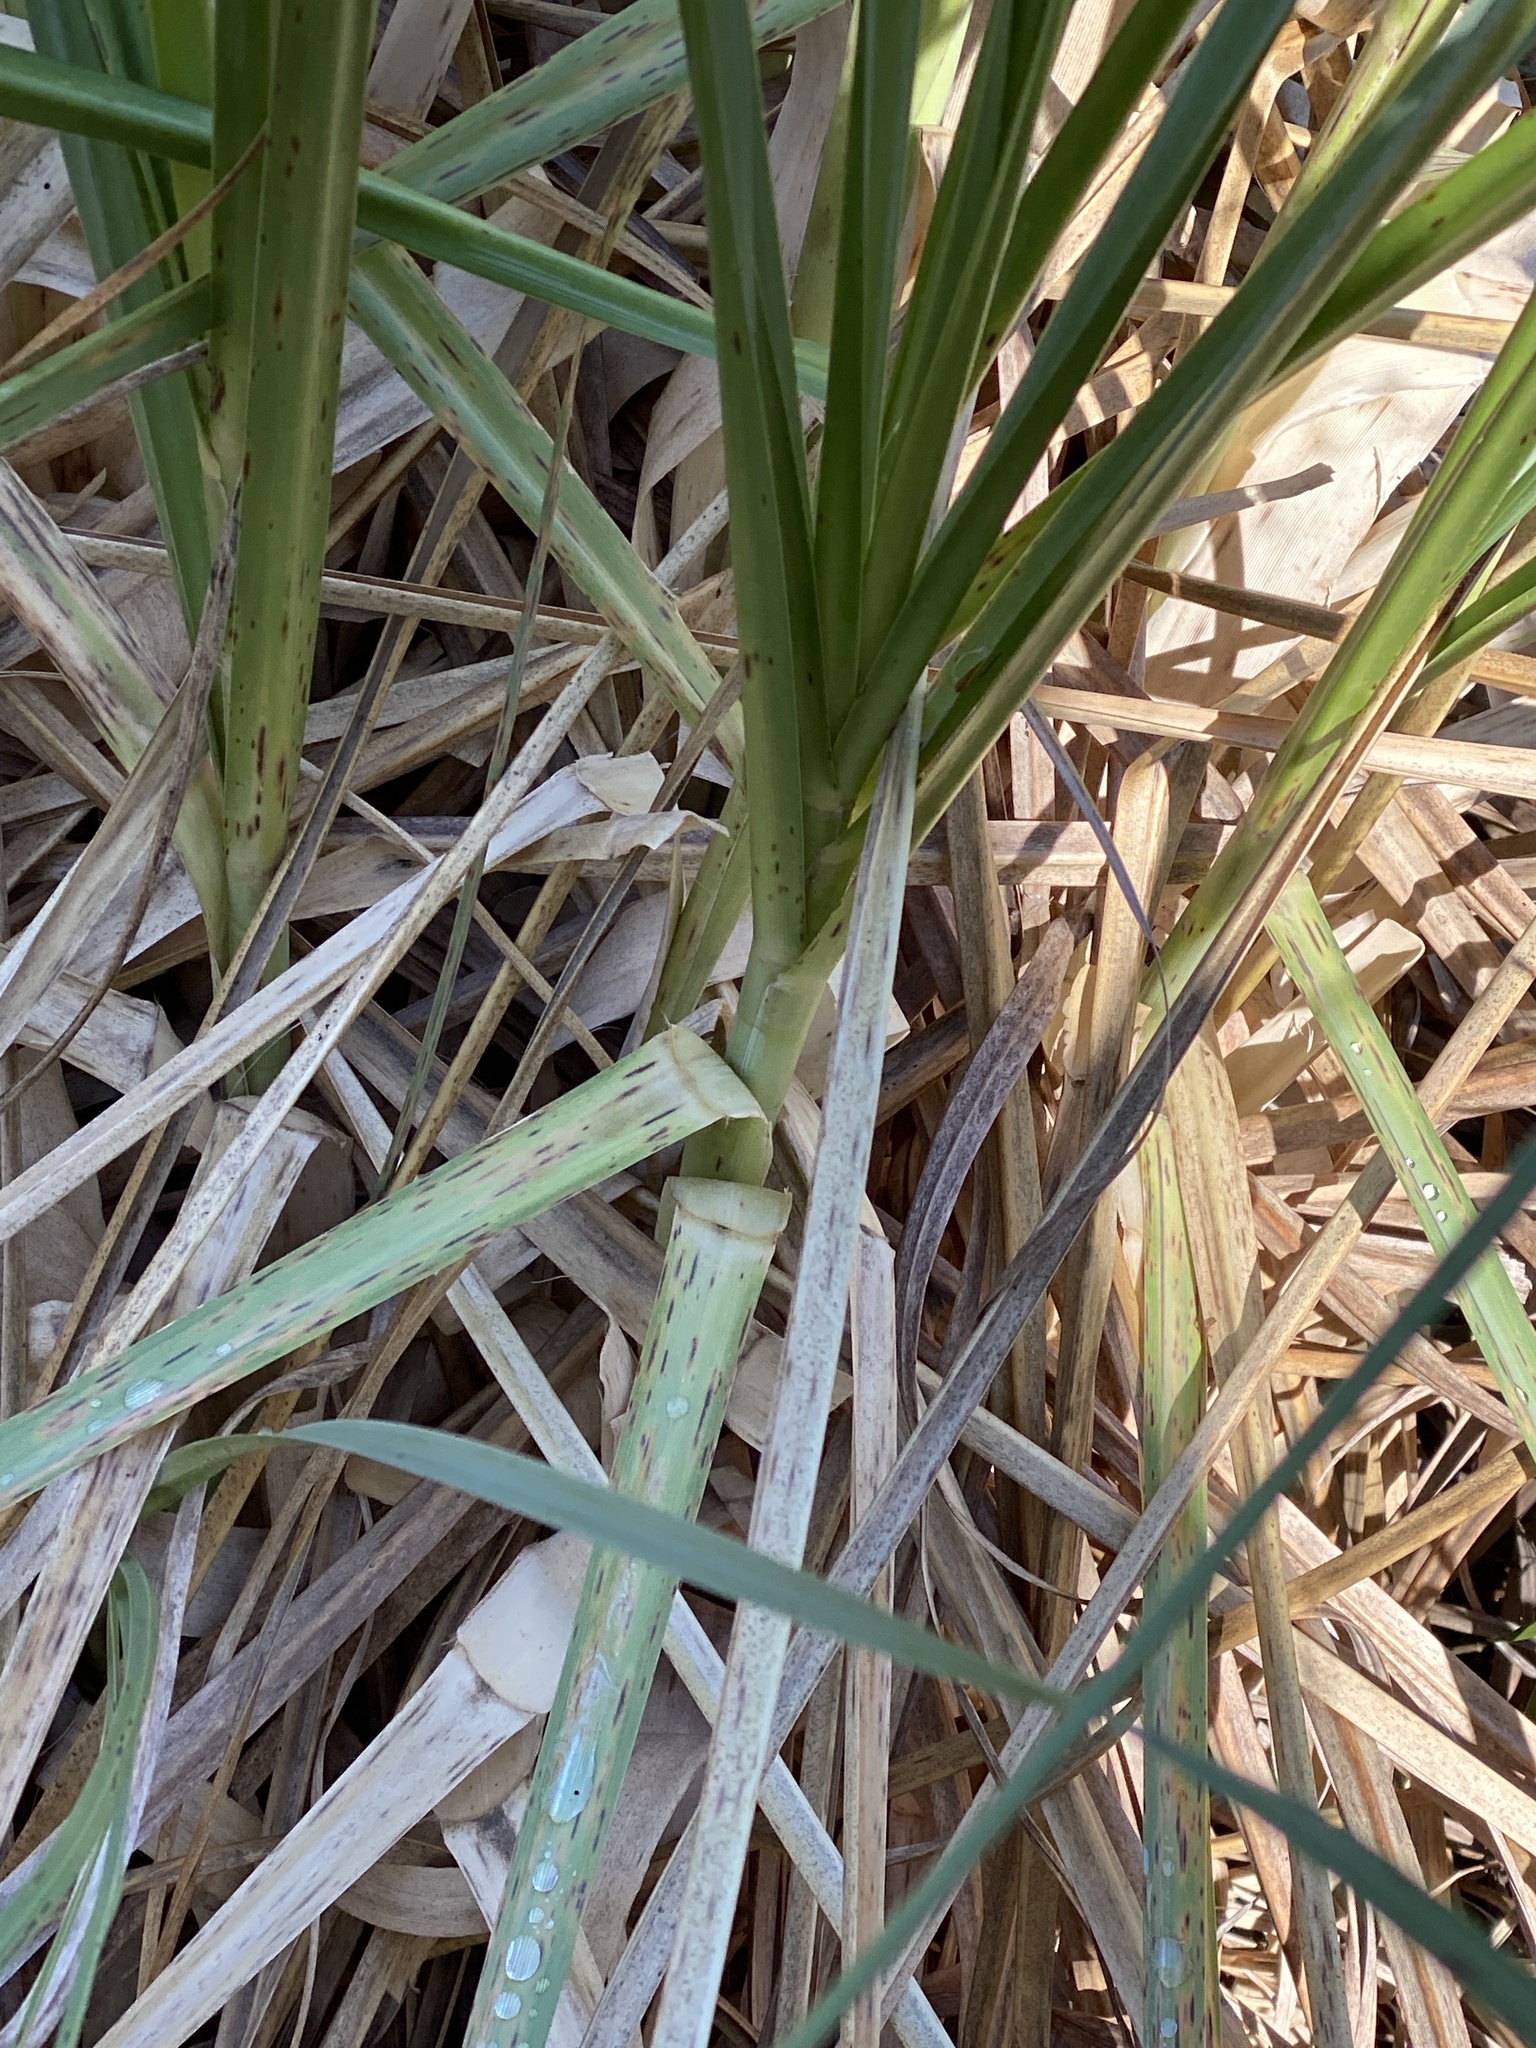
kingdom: Plantae
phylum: Tracheophyta
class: Liliopsida
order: Poales
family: Poaceae
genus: Cortaderia
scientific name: Cortaderia jubata
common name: Purple pampas grass
